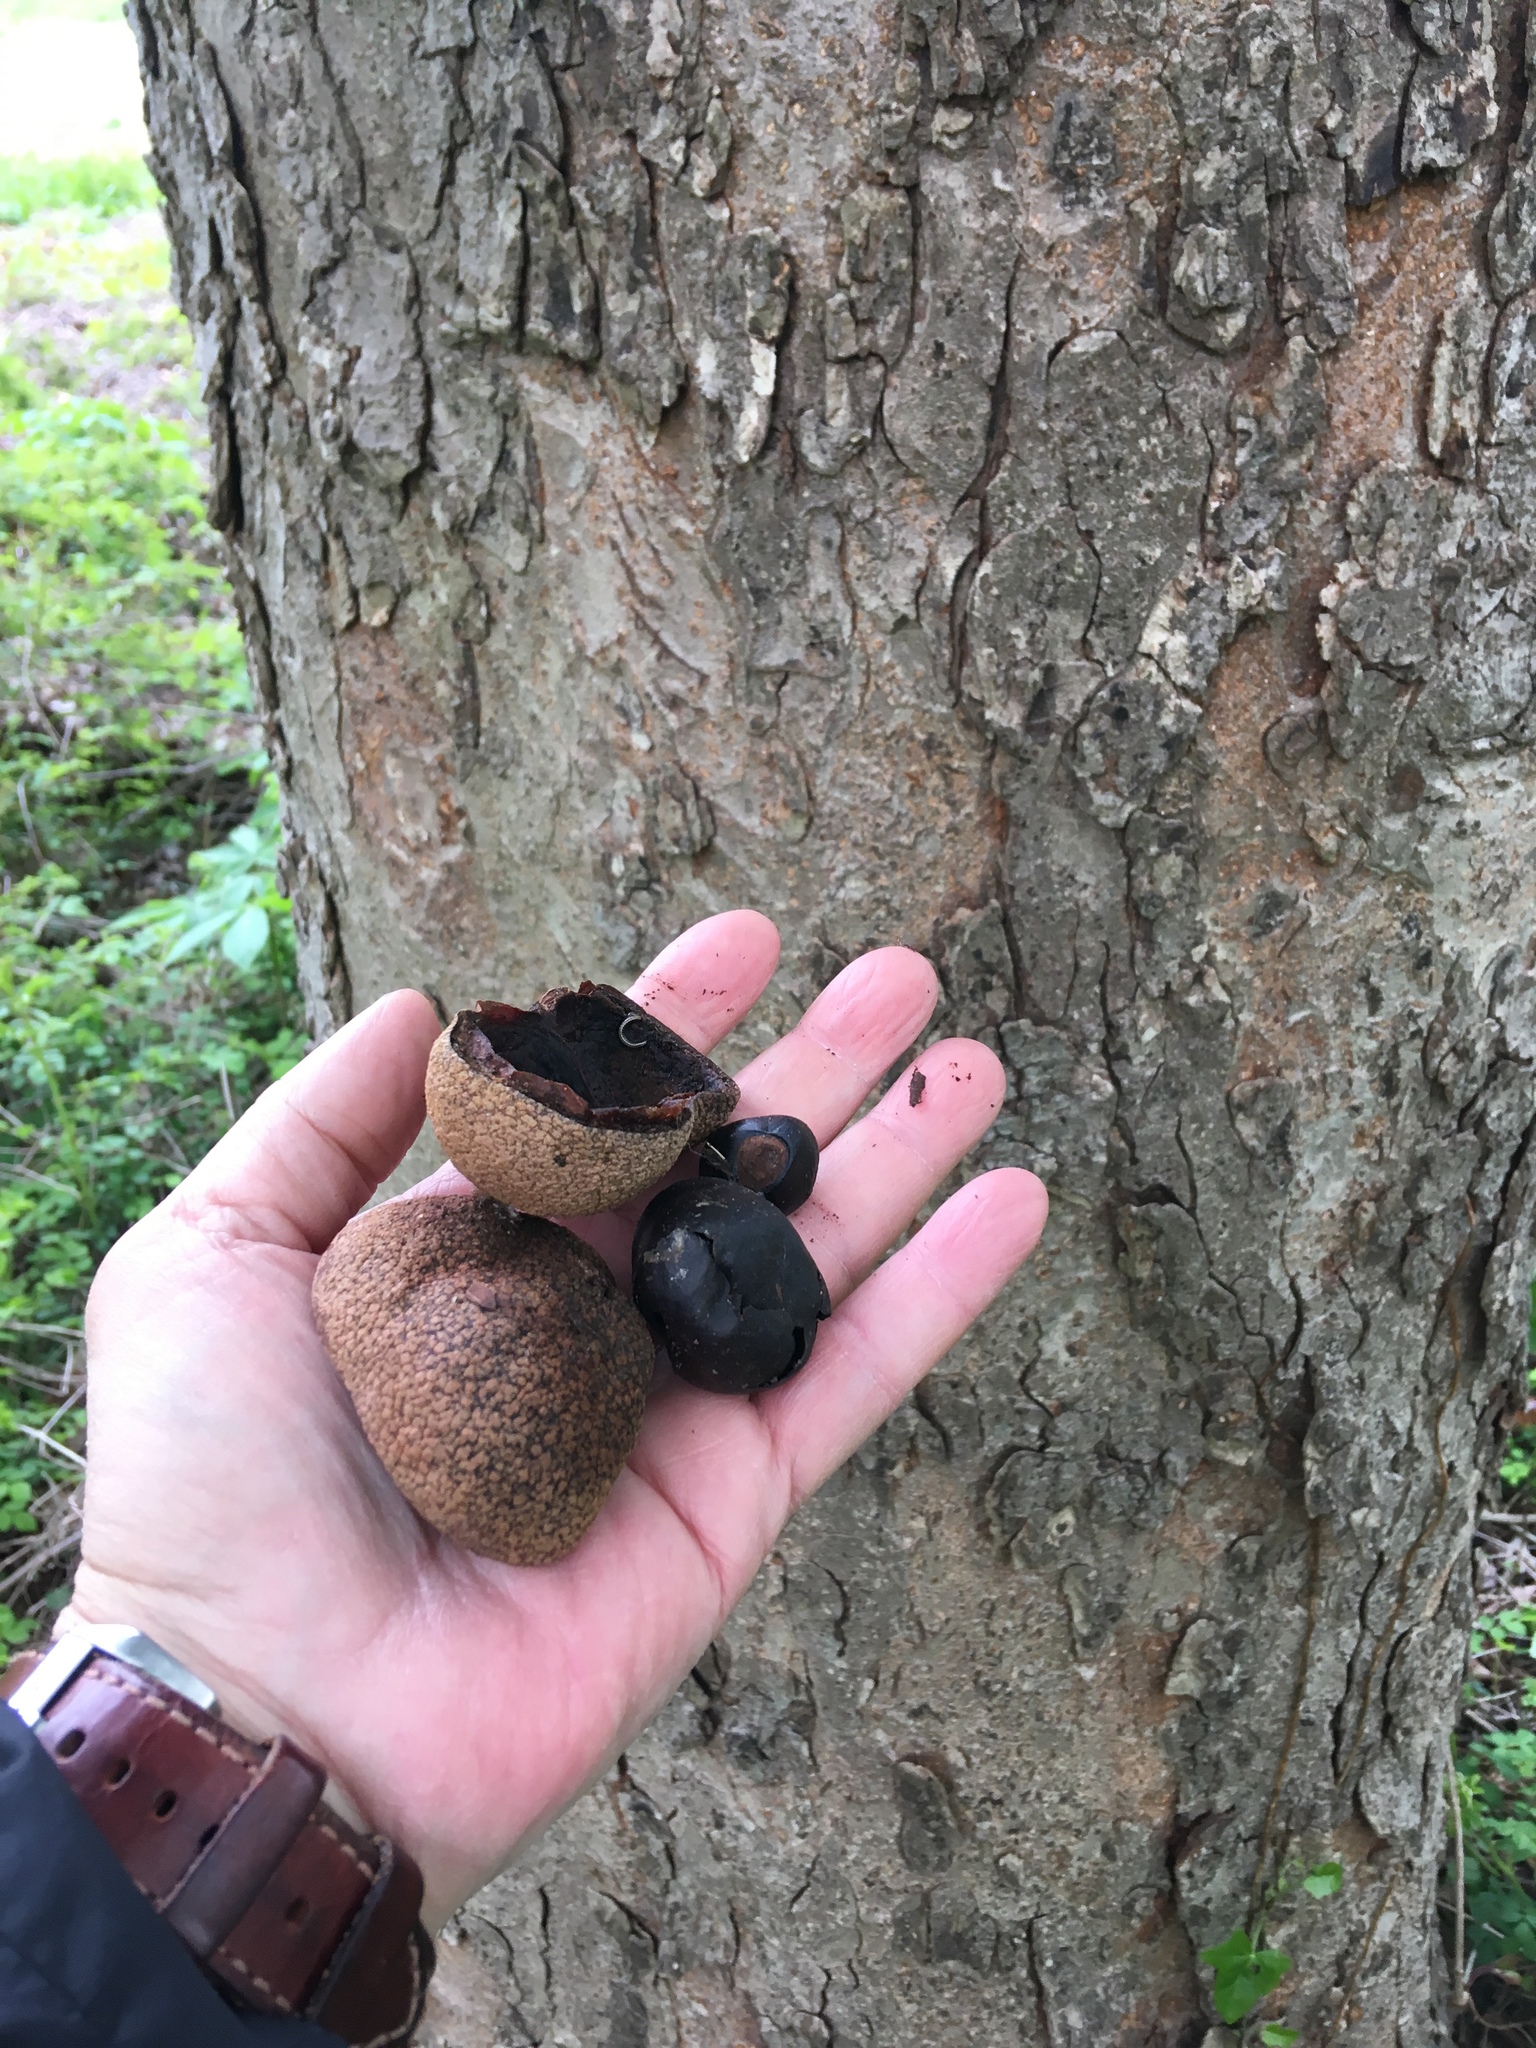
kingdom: Plantae
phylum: Tracheophyta
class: Magnoliopsida
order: Sapindales
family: Sapindaceae
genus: Aesculus
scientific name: Aesculus glabra
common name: Ohio buckeye
